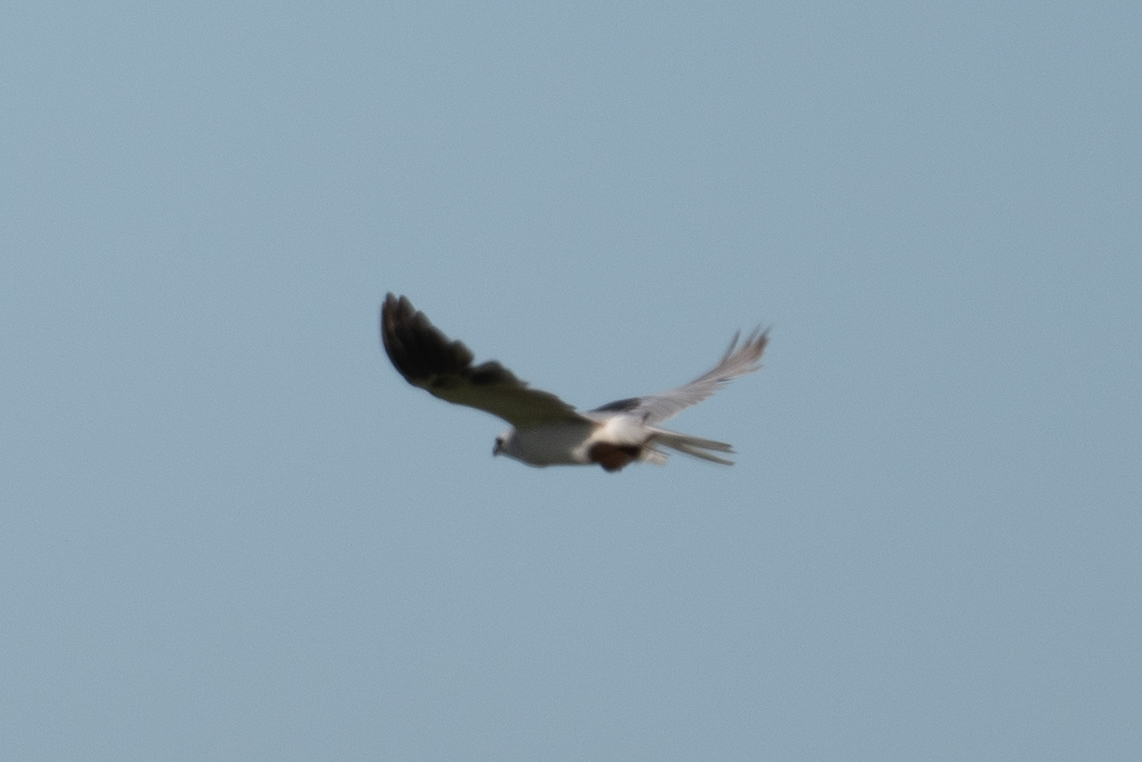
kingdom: Animalia
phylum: Chordata
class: Aves
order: Accipitriformes
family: Accipitridae
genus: Elanus
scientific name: Elanus leucurus
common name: White-tailed kite
